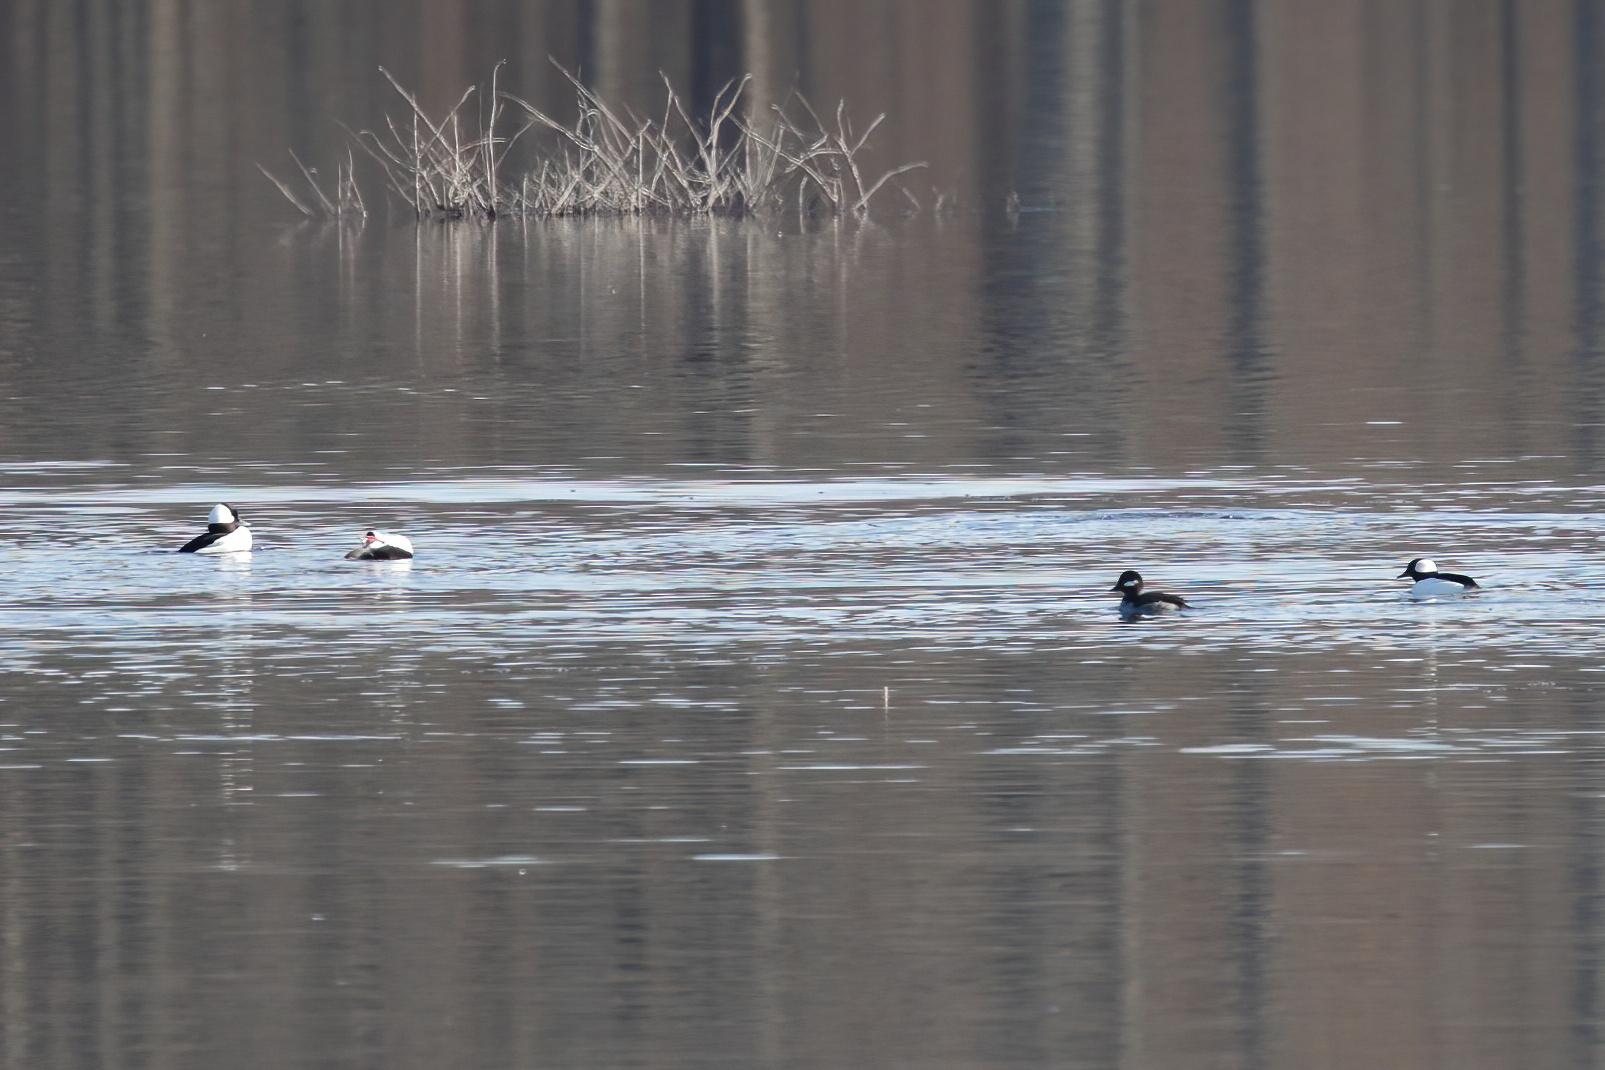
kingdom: Animalia
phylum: Chordata
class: Aves
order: Anseriformes
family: Anatidae
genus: Bucephala
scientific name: Bucephala albeola
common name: Bufflehead
